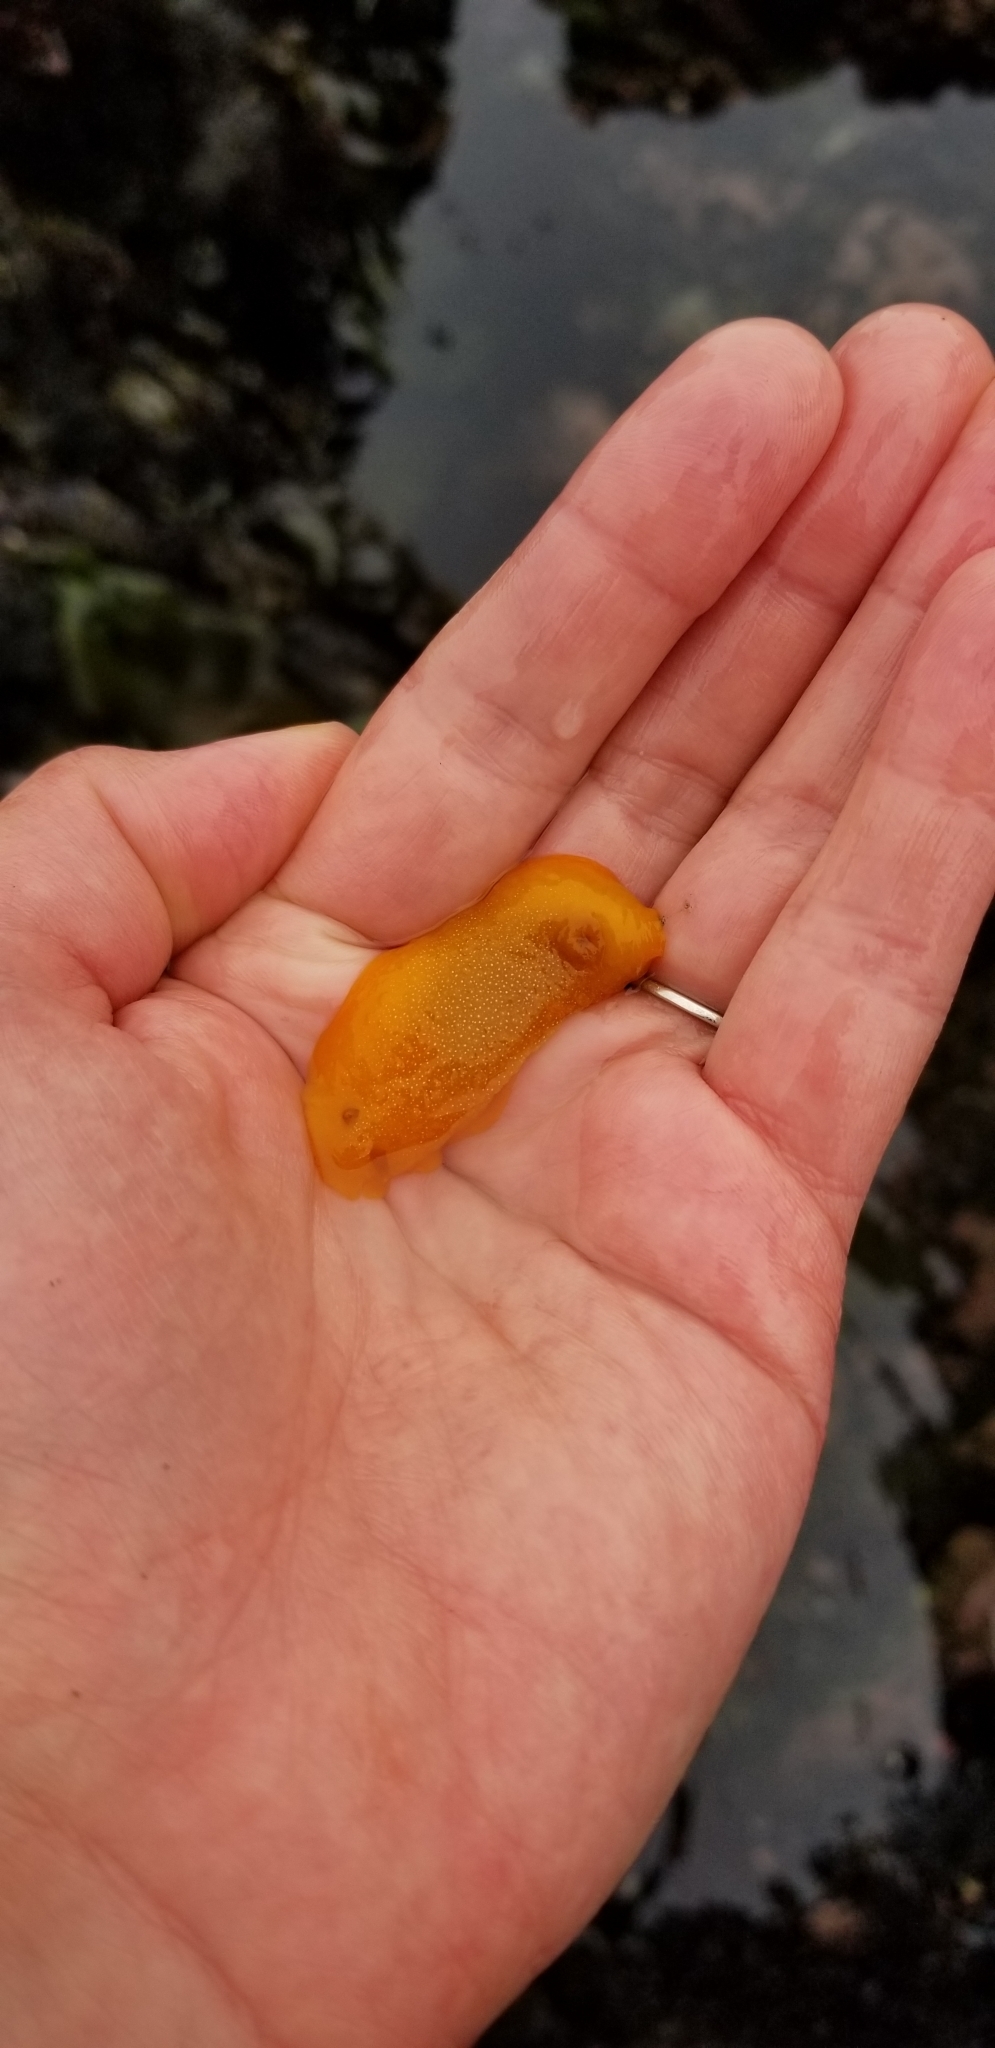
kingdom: Animalia
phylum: Mollusca
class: Gastropoda
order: Nudibranchia
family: Dendrodorididae
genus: Doriopsilla
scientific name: Doriopsilla albopunctata
